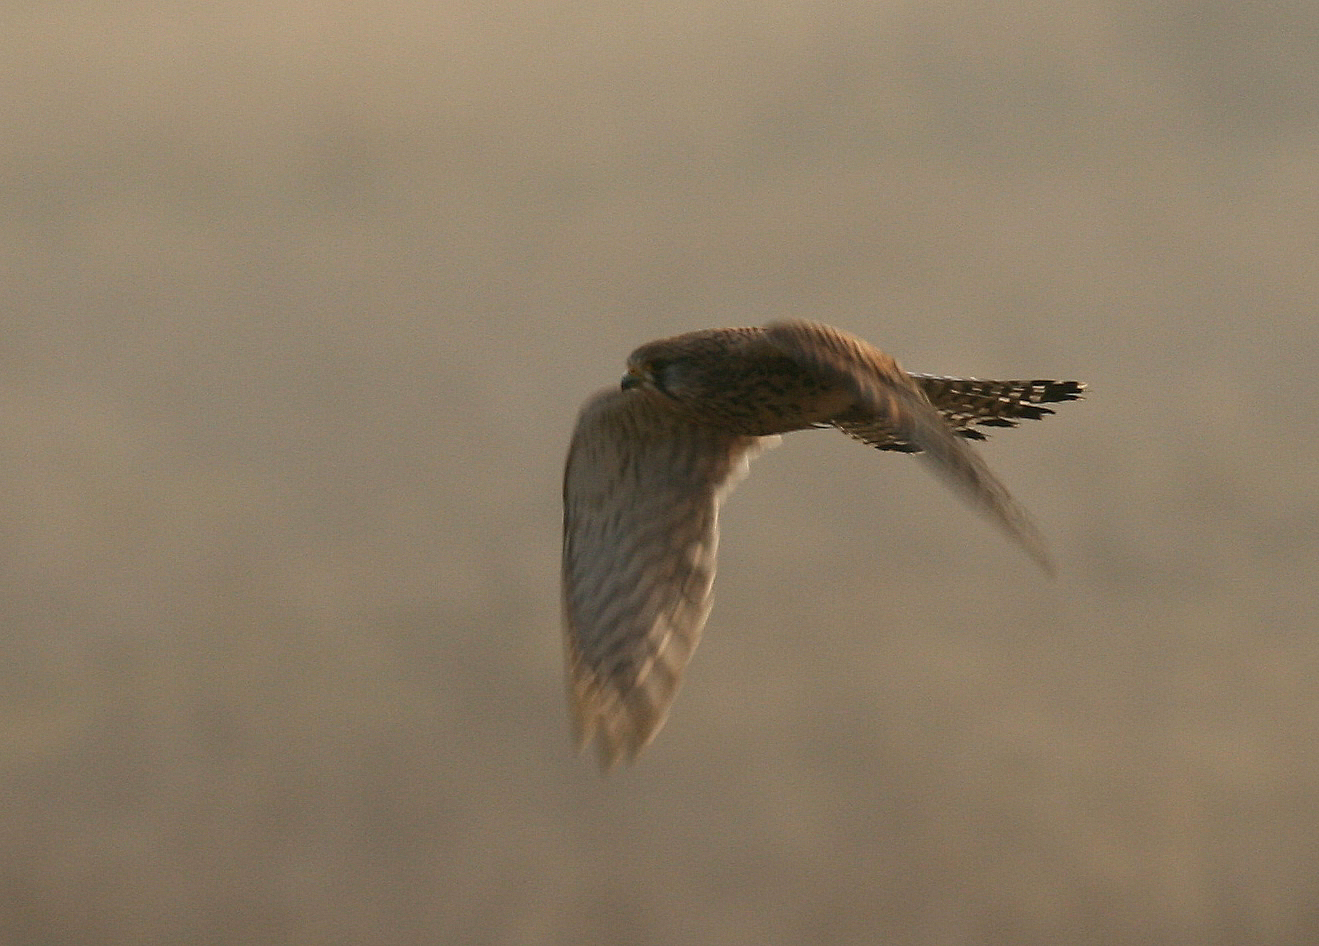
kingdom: Animalia
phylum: Chordata
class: Aves
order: Falconiformes
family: Falconidae
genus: Falco
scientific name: Falco tinnunculus
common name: Common kestrel
